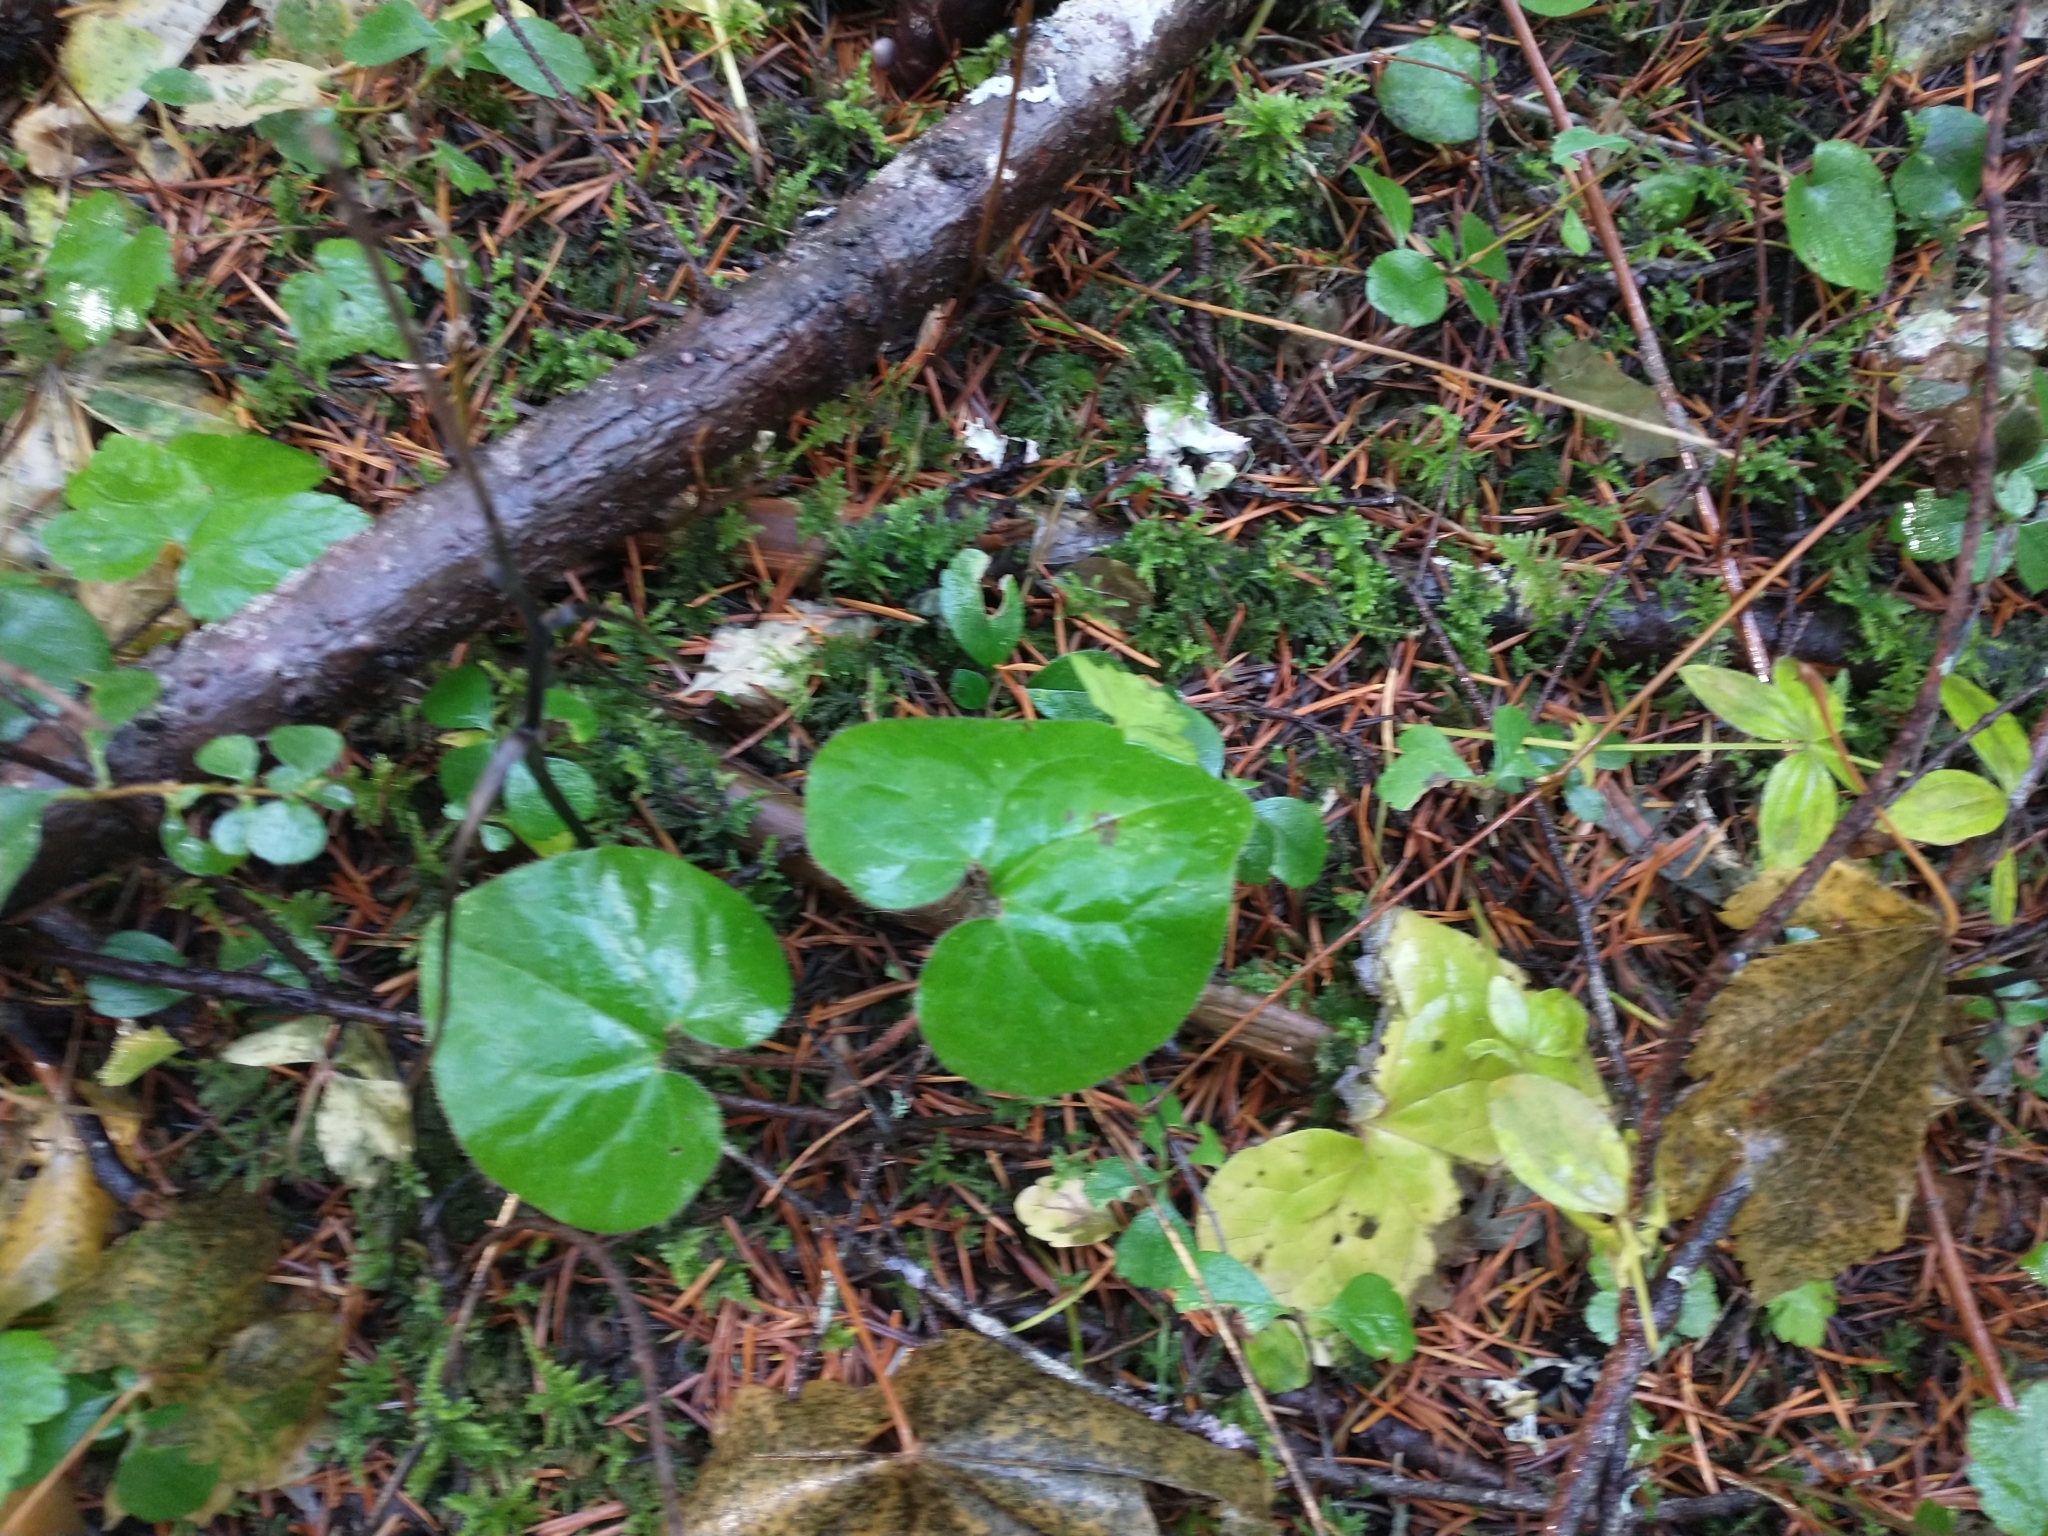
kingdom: Plantae
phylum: Tracheophyta
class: Magnoliopsida
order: Piperales
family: Aristolochiaceae
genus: Asarum
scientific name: Asarum caudatum
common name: Wild ginger
